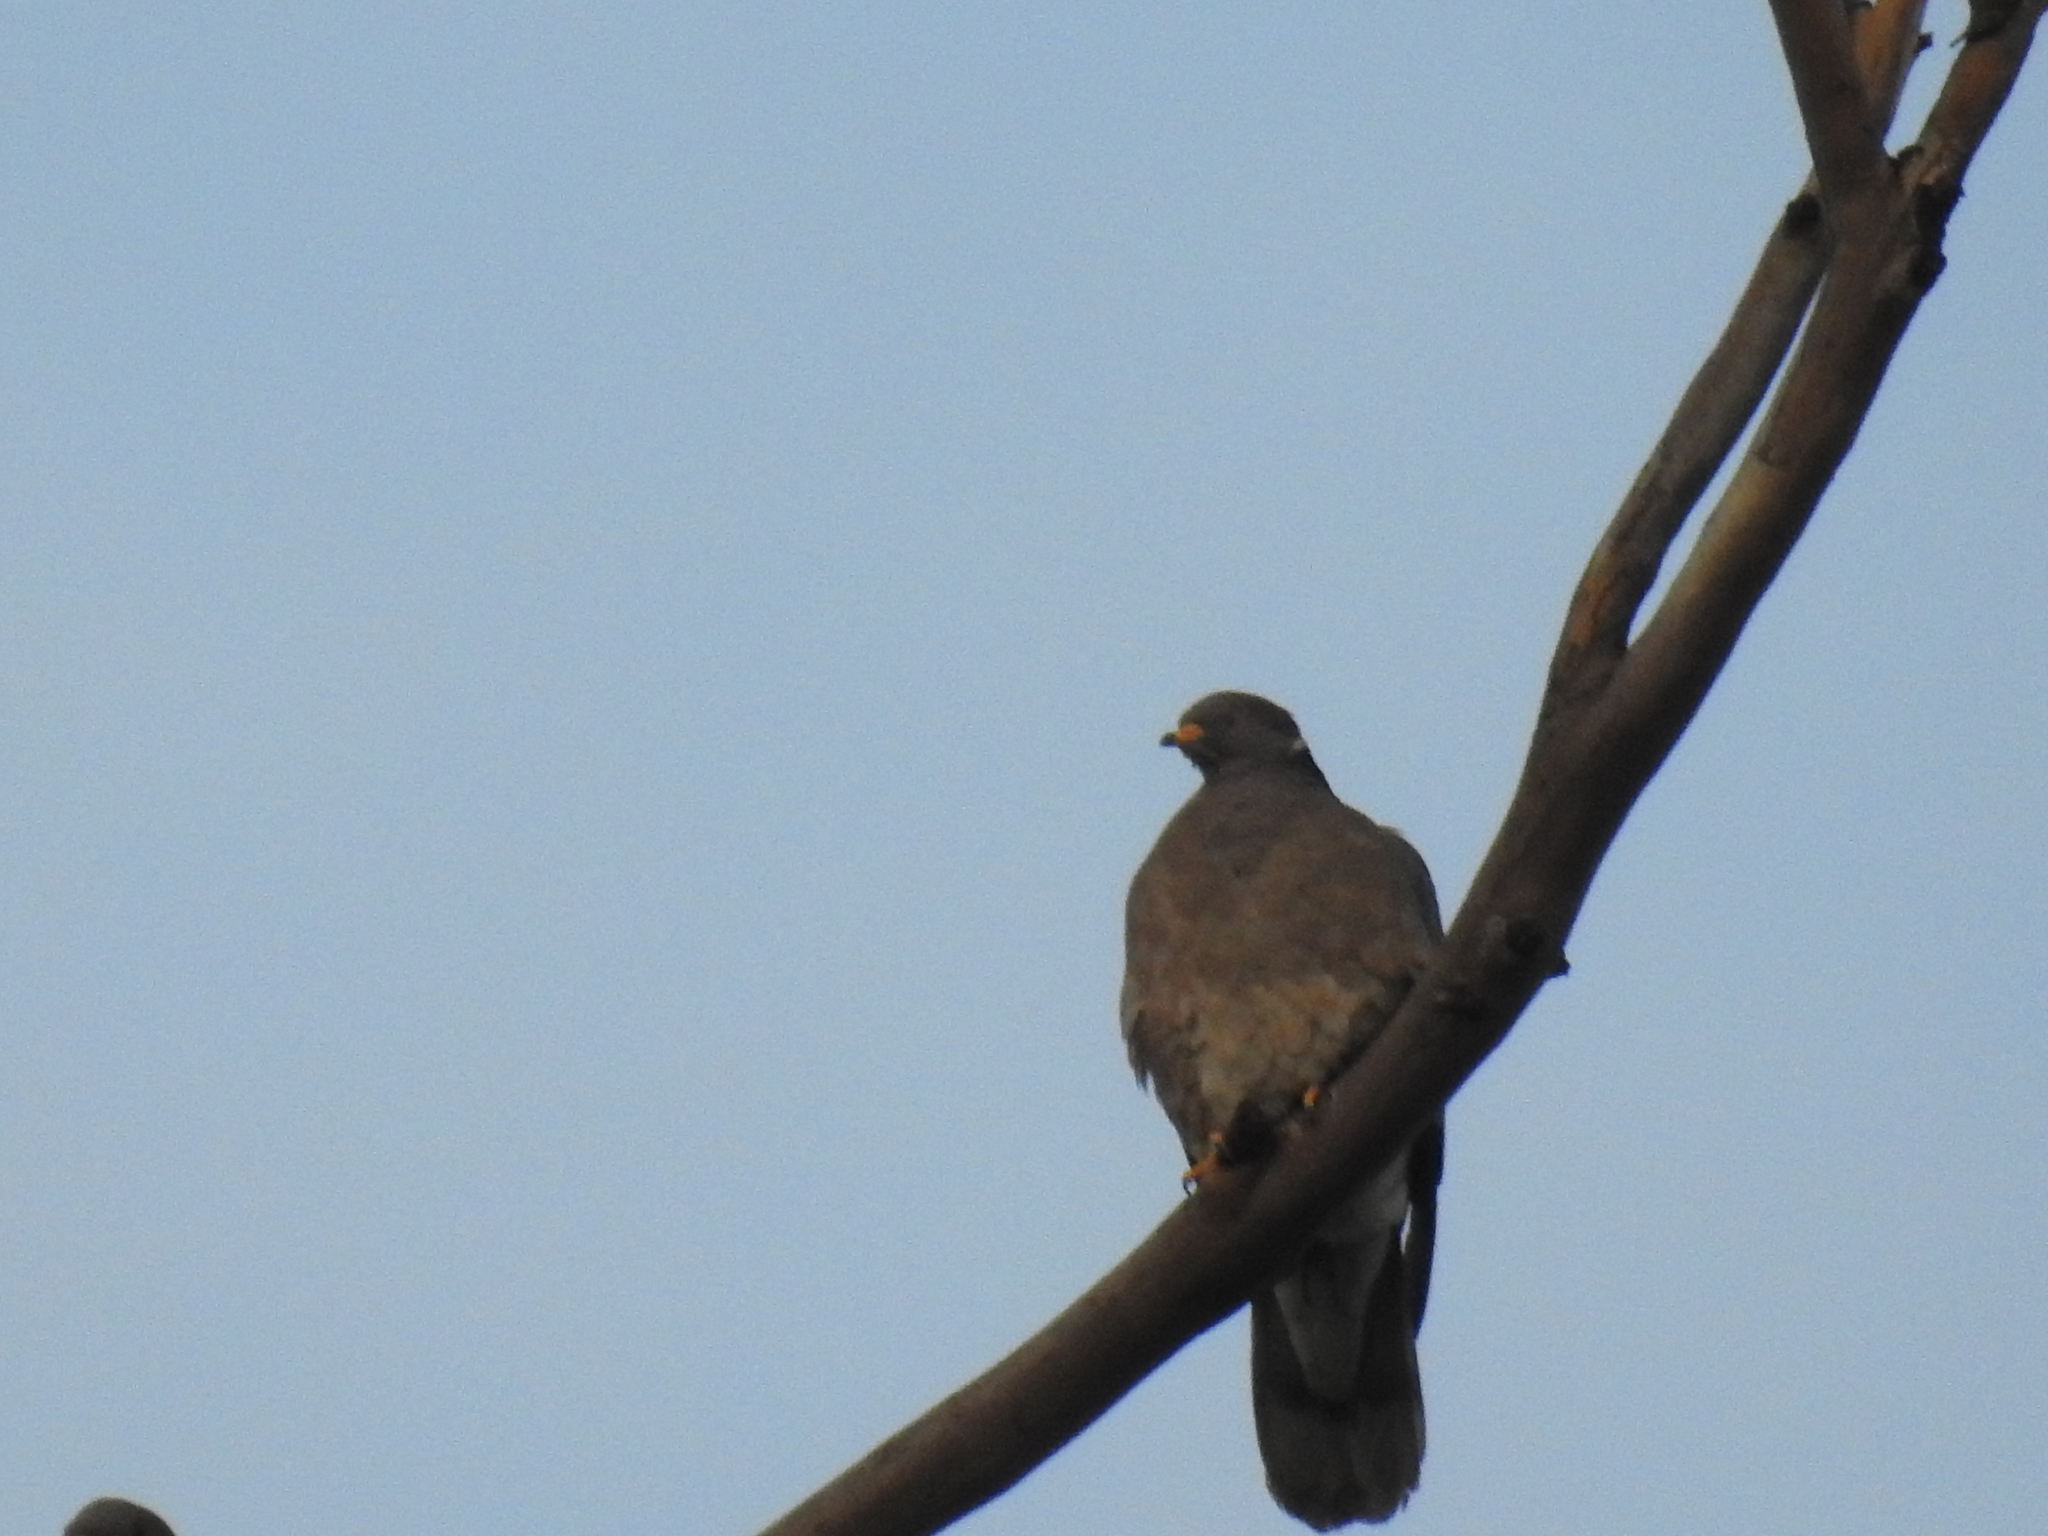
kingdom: Animalia
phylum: Chordata
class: Aves
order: Columbiformes
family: Columbidae
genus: Patagioenas
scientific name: Patagioenas fasciata
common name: Band-tailed pigeon
